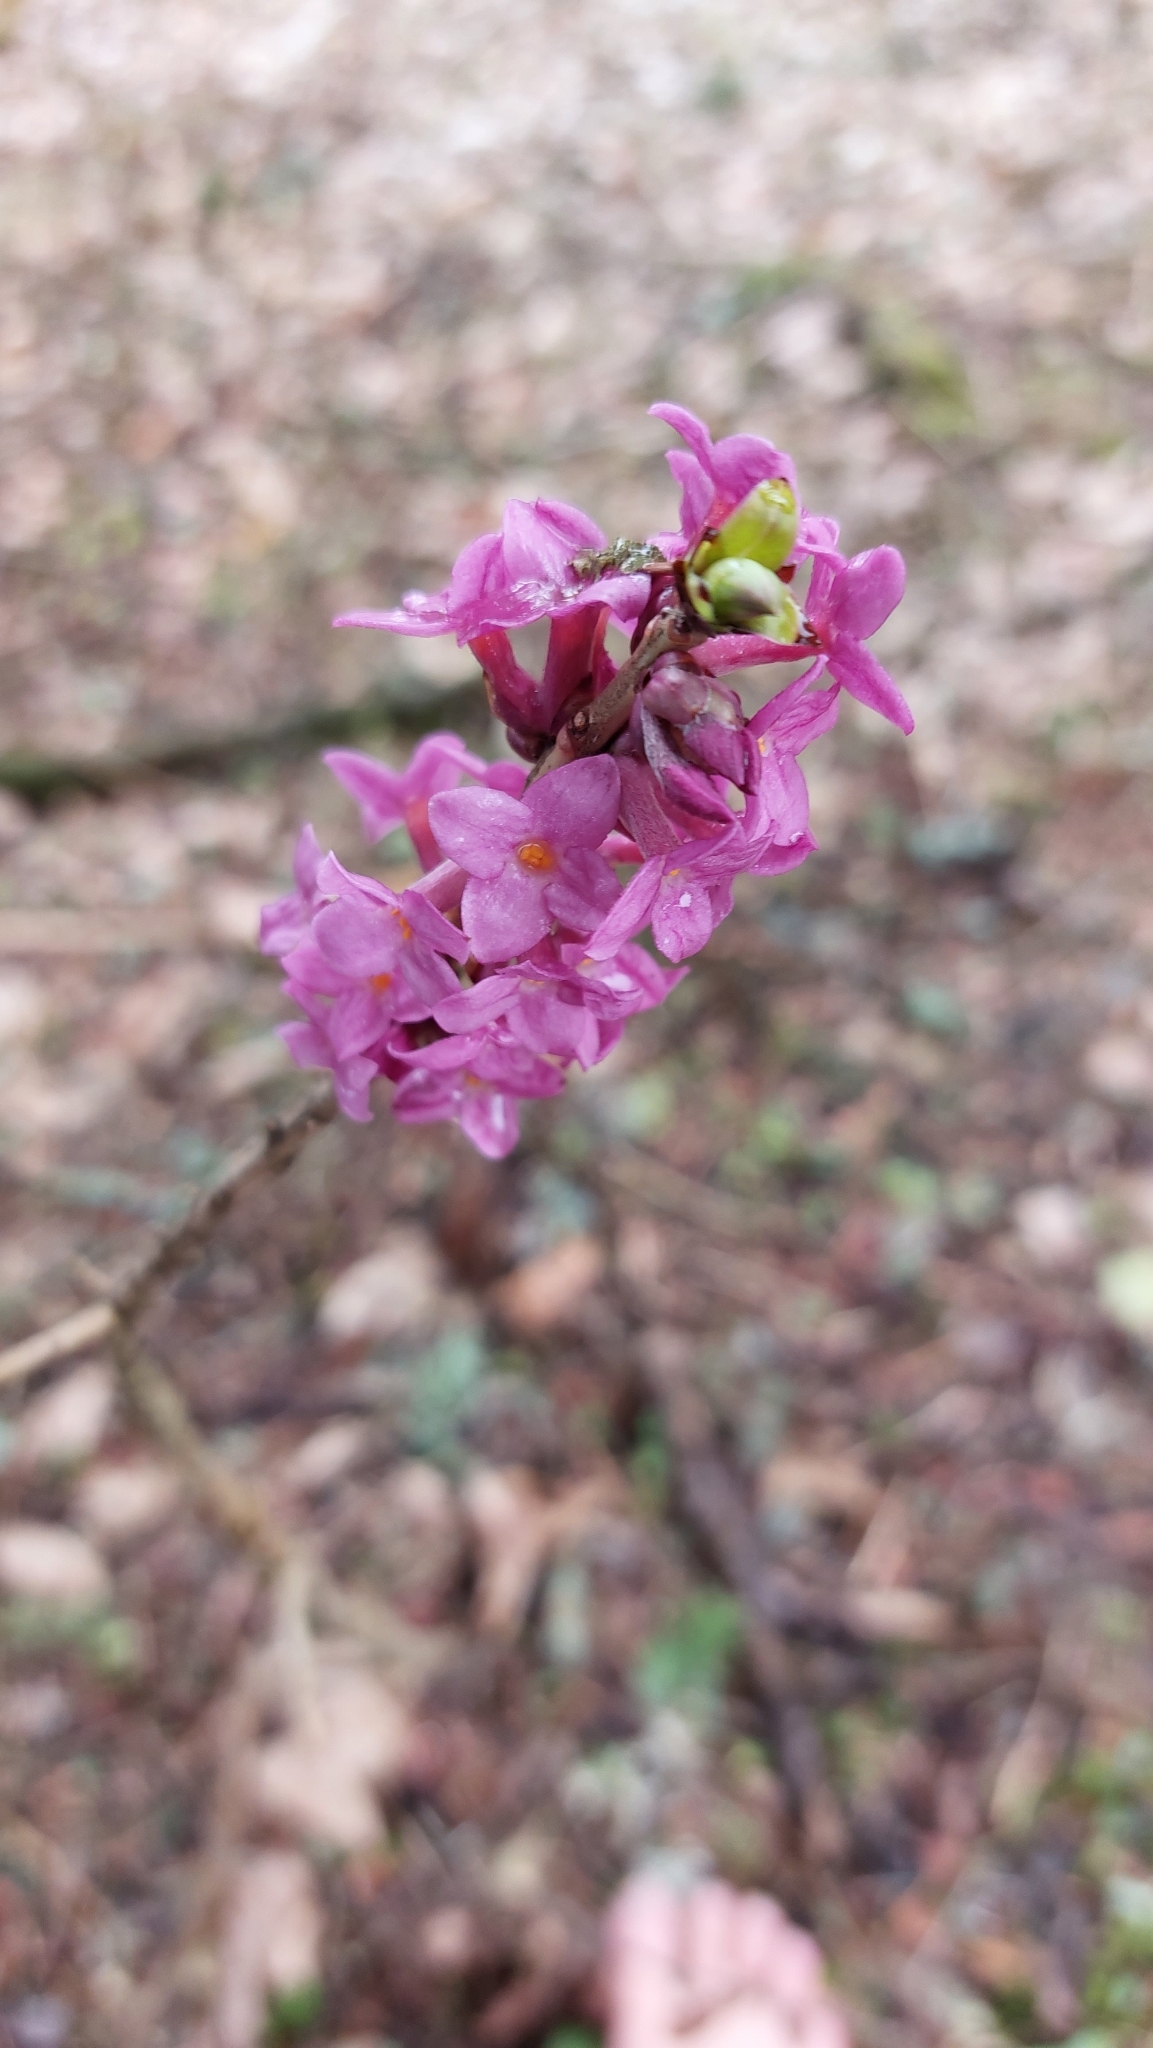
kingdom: Plantae
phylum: Tracheophyta
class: Magnoliopsida
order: Malvales
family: Thymelaeaceae
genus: Daphne
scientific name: Daphne mezereum
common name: Mezereon
